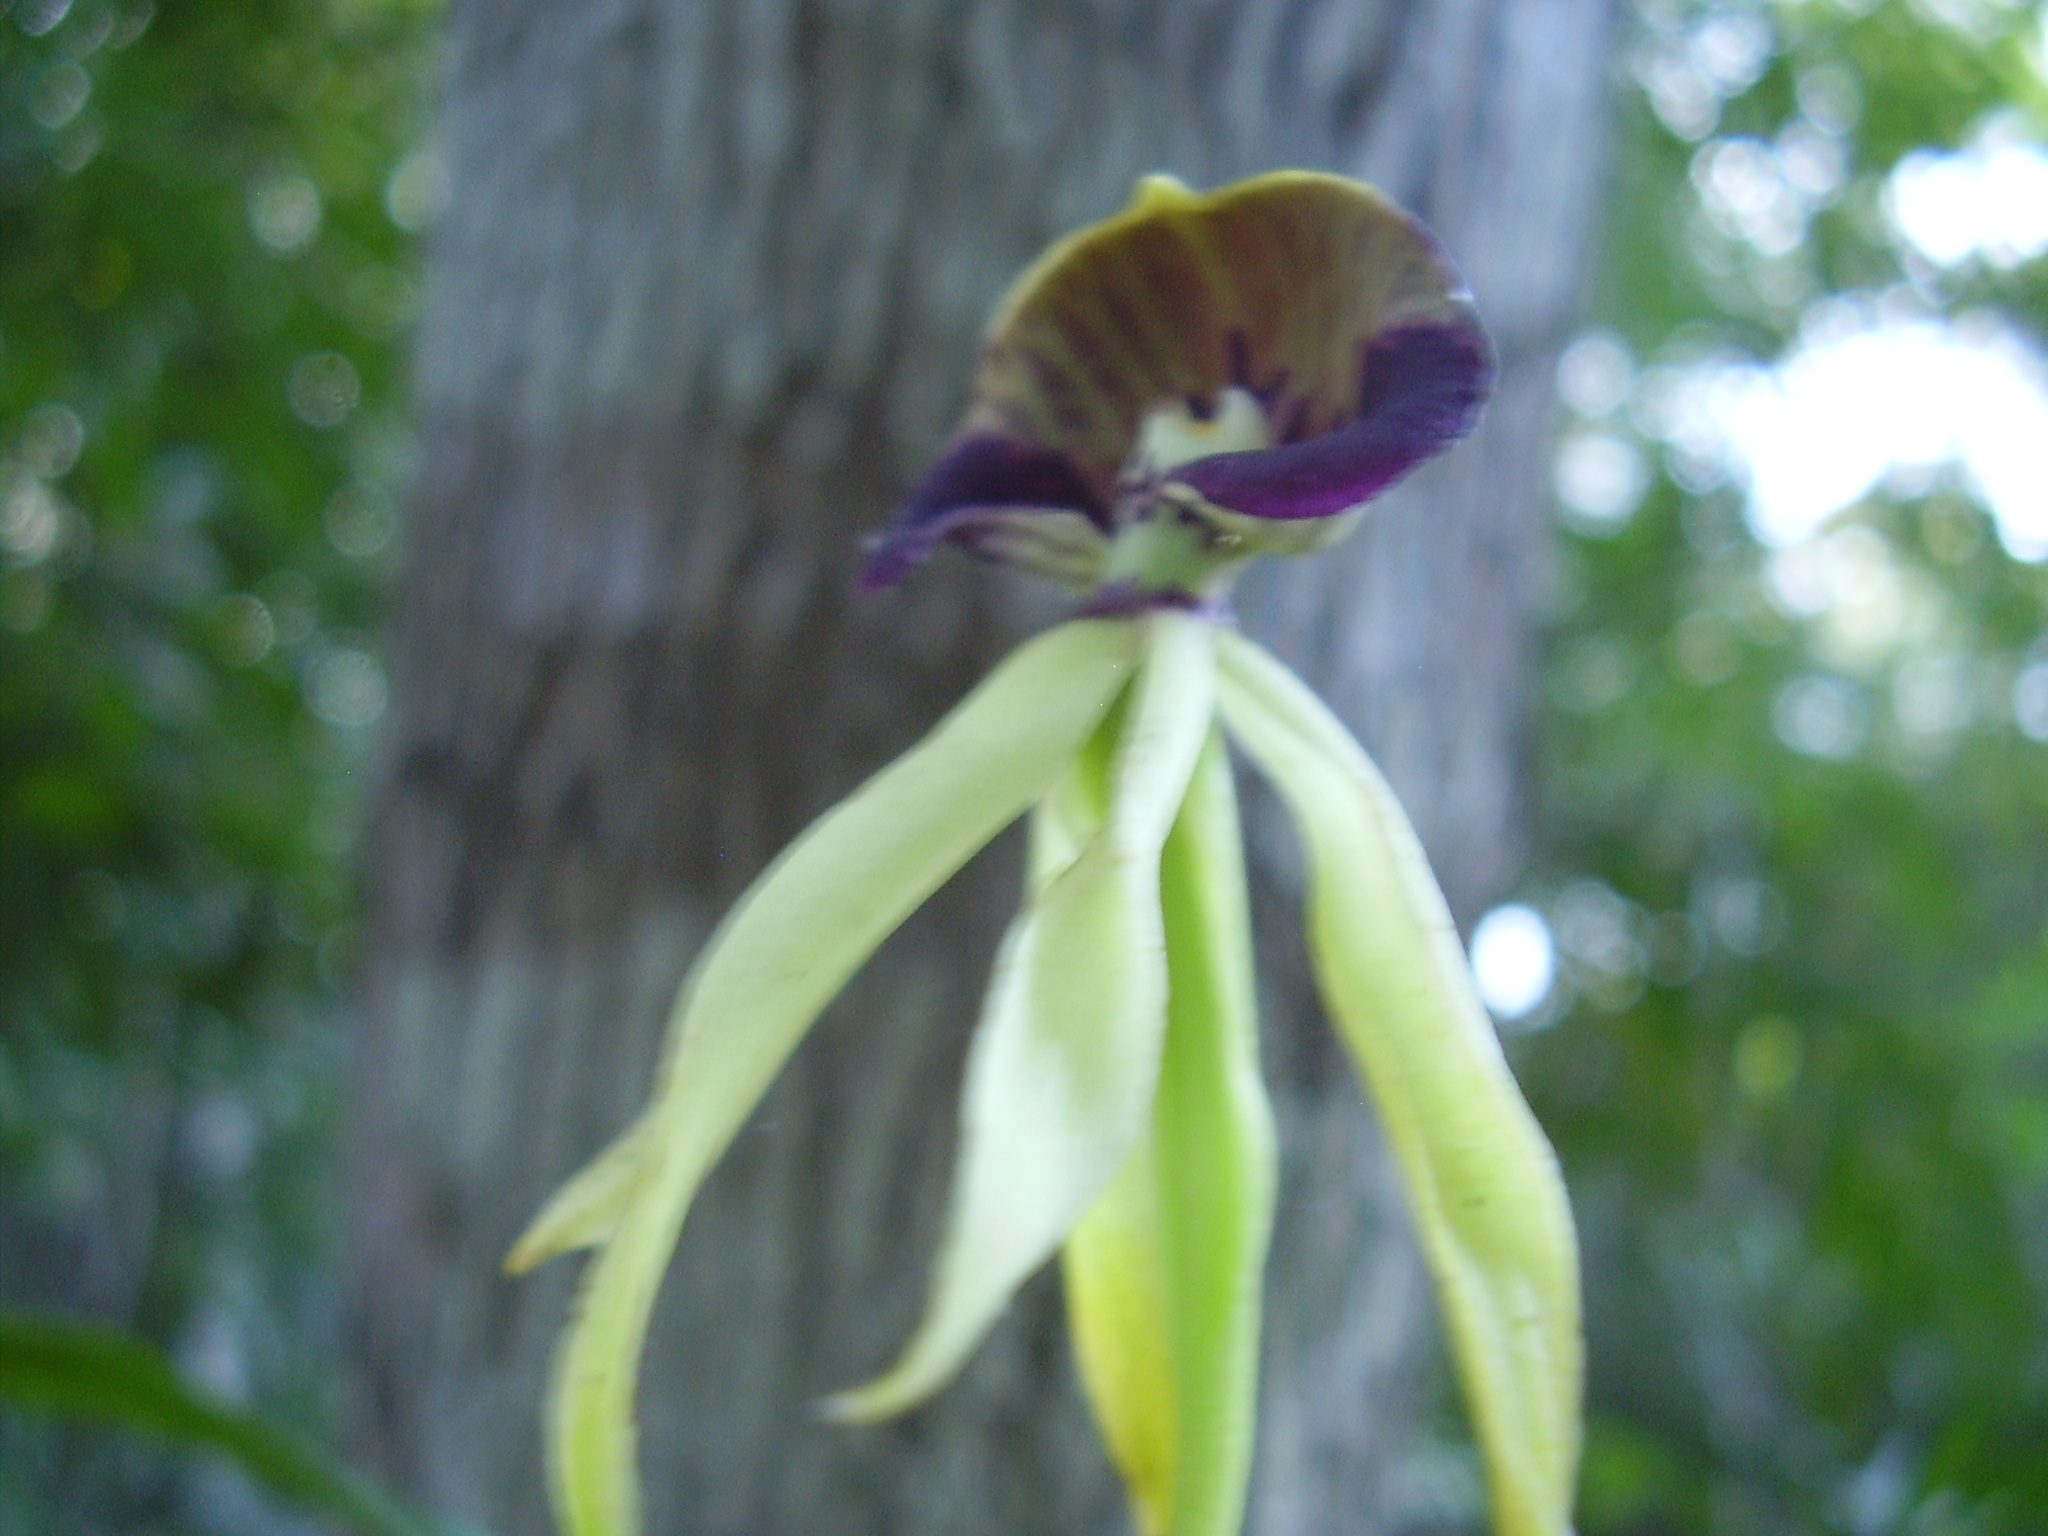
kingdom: Plantae
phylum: Tracheophyta
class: Liliopsida
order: Asparagales
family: Orchidaceae
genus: Prosthechea
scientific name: Prosthechea cochleata
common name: Clamshell orchid
